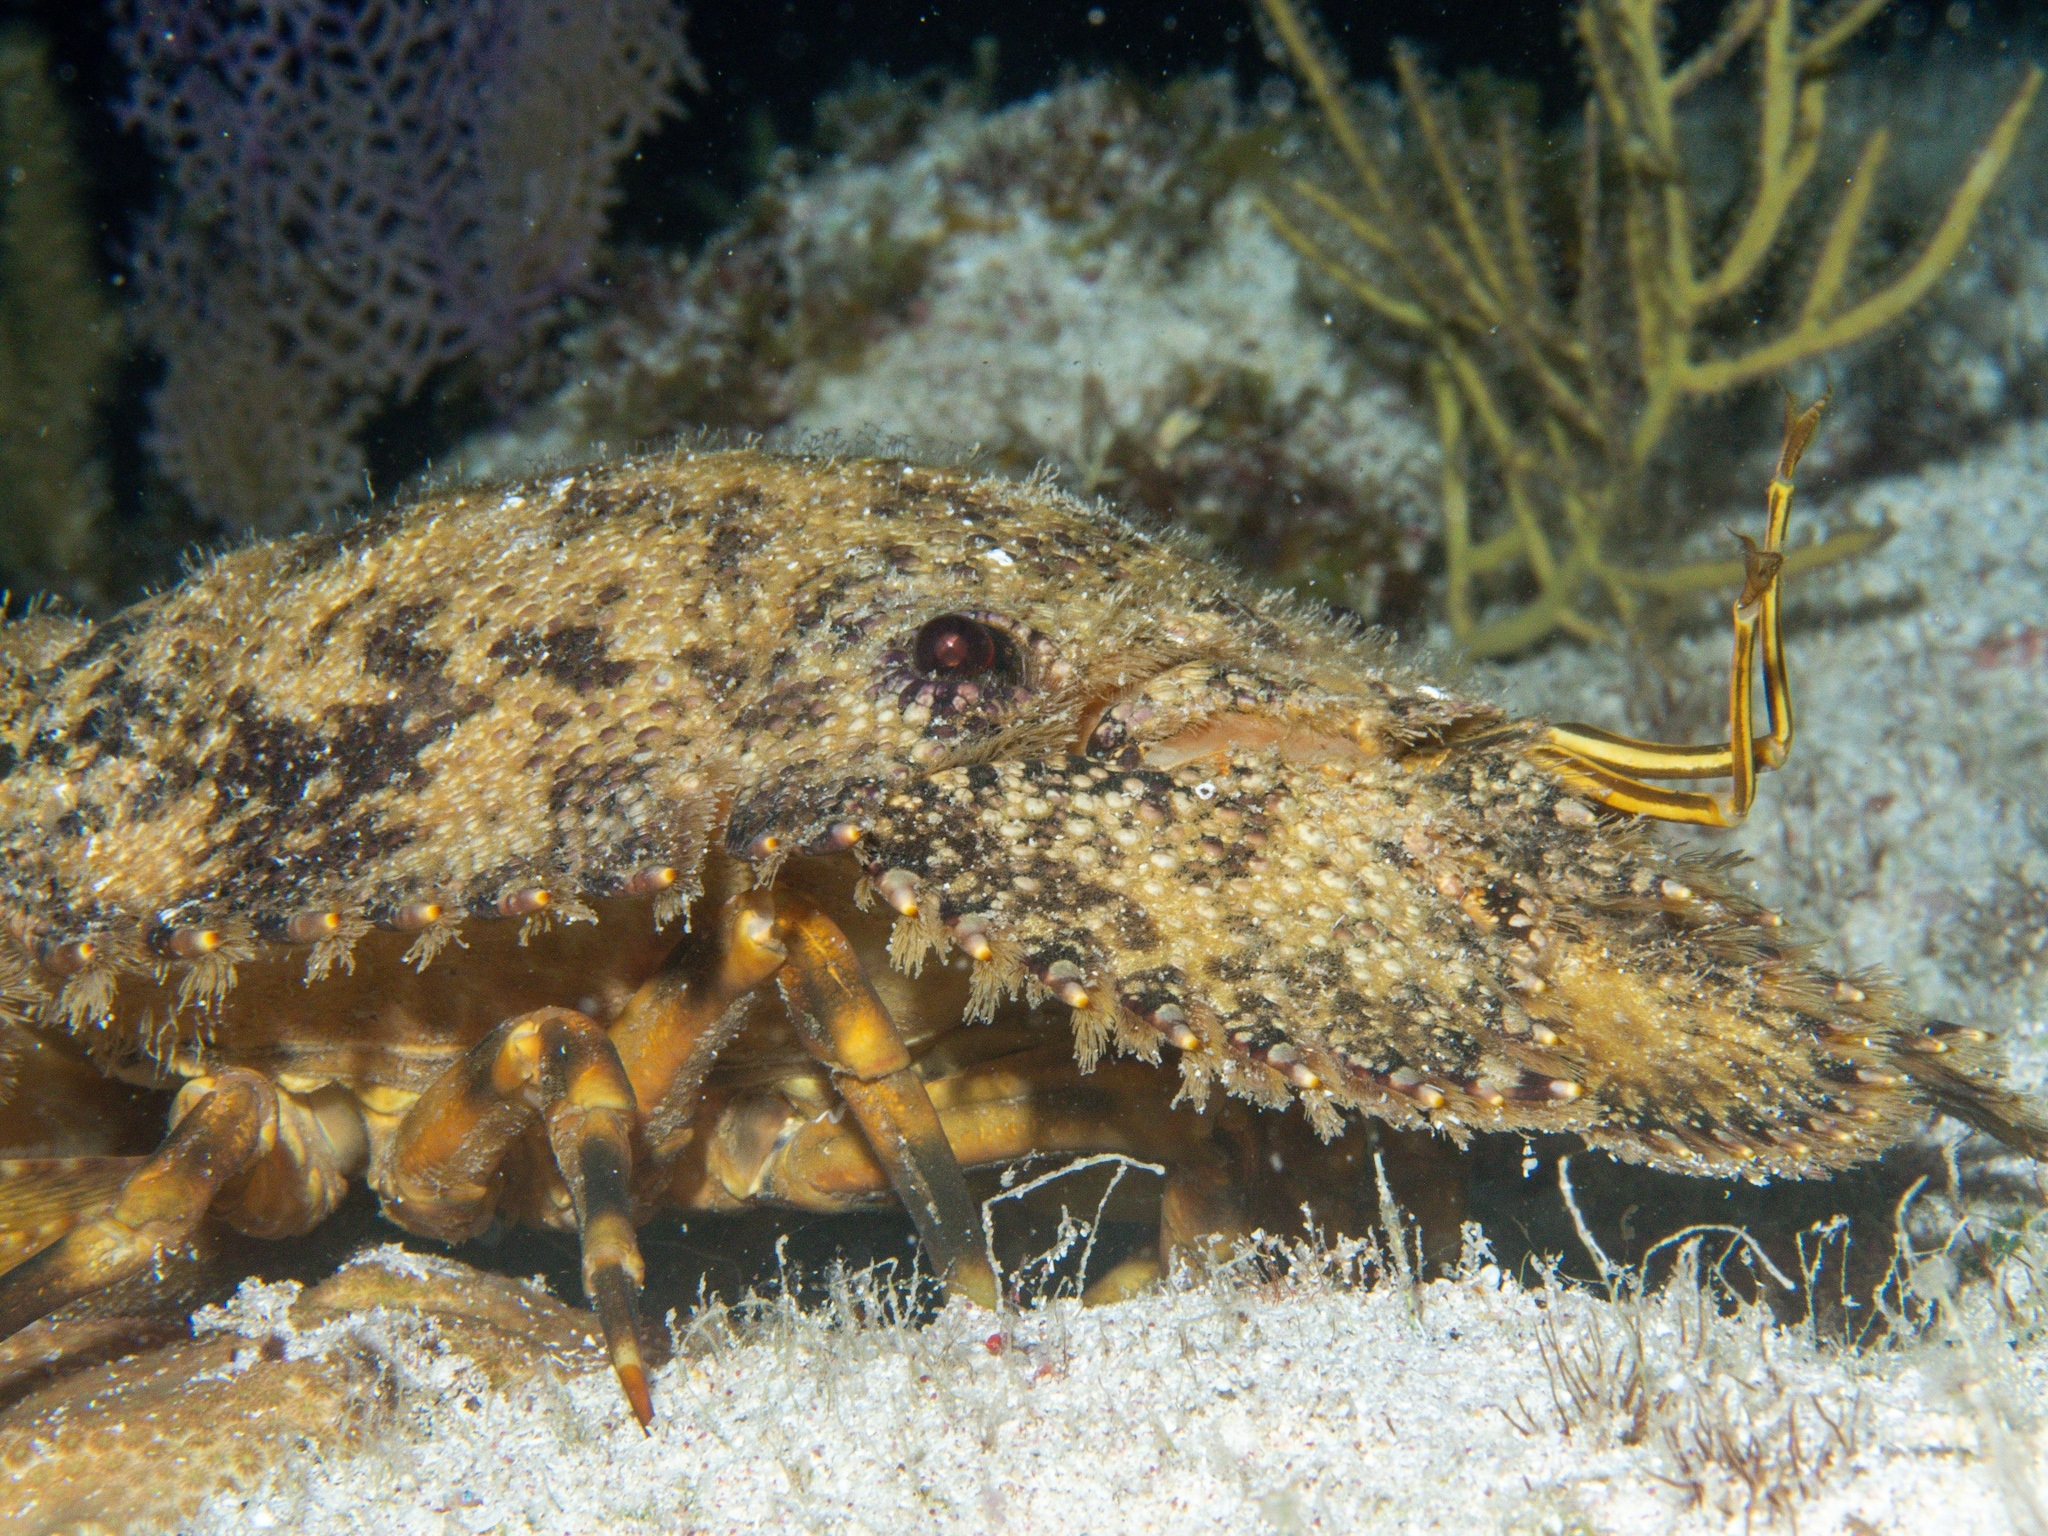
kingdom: Animalia
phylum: Arthropoda
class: Malacostraca
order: Decapoda
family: Scyllaridae
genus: Parribacus
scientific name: Parribacus antarcticus
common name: Sculptured mitten lobster
